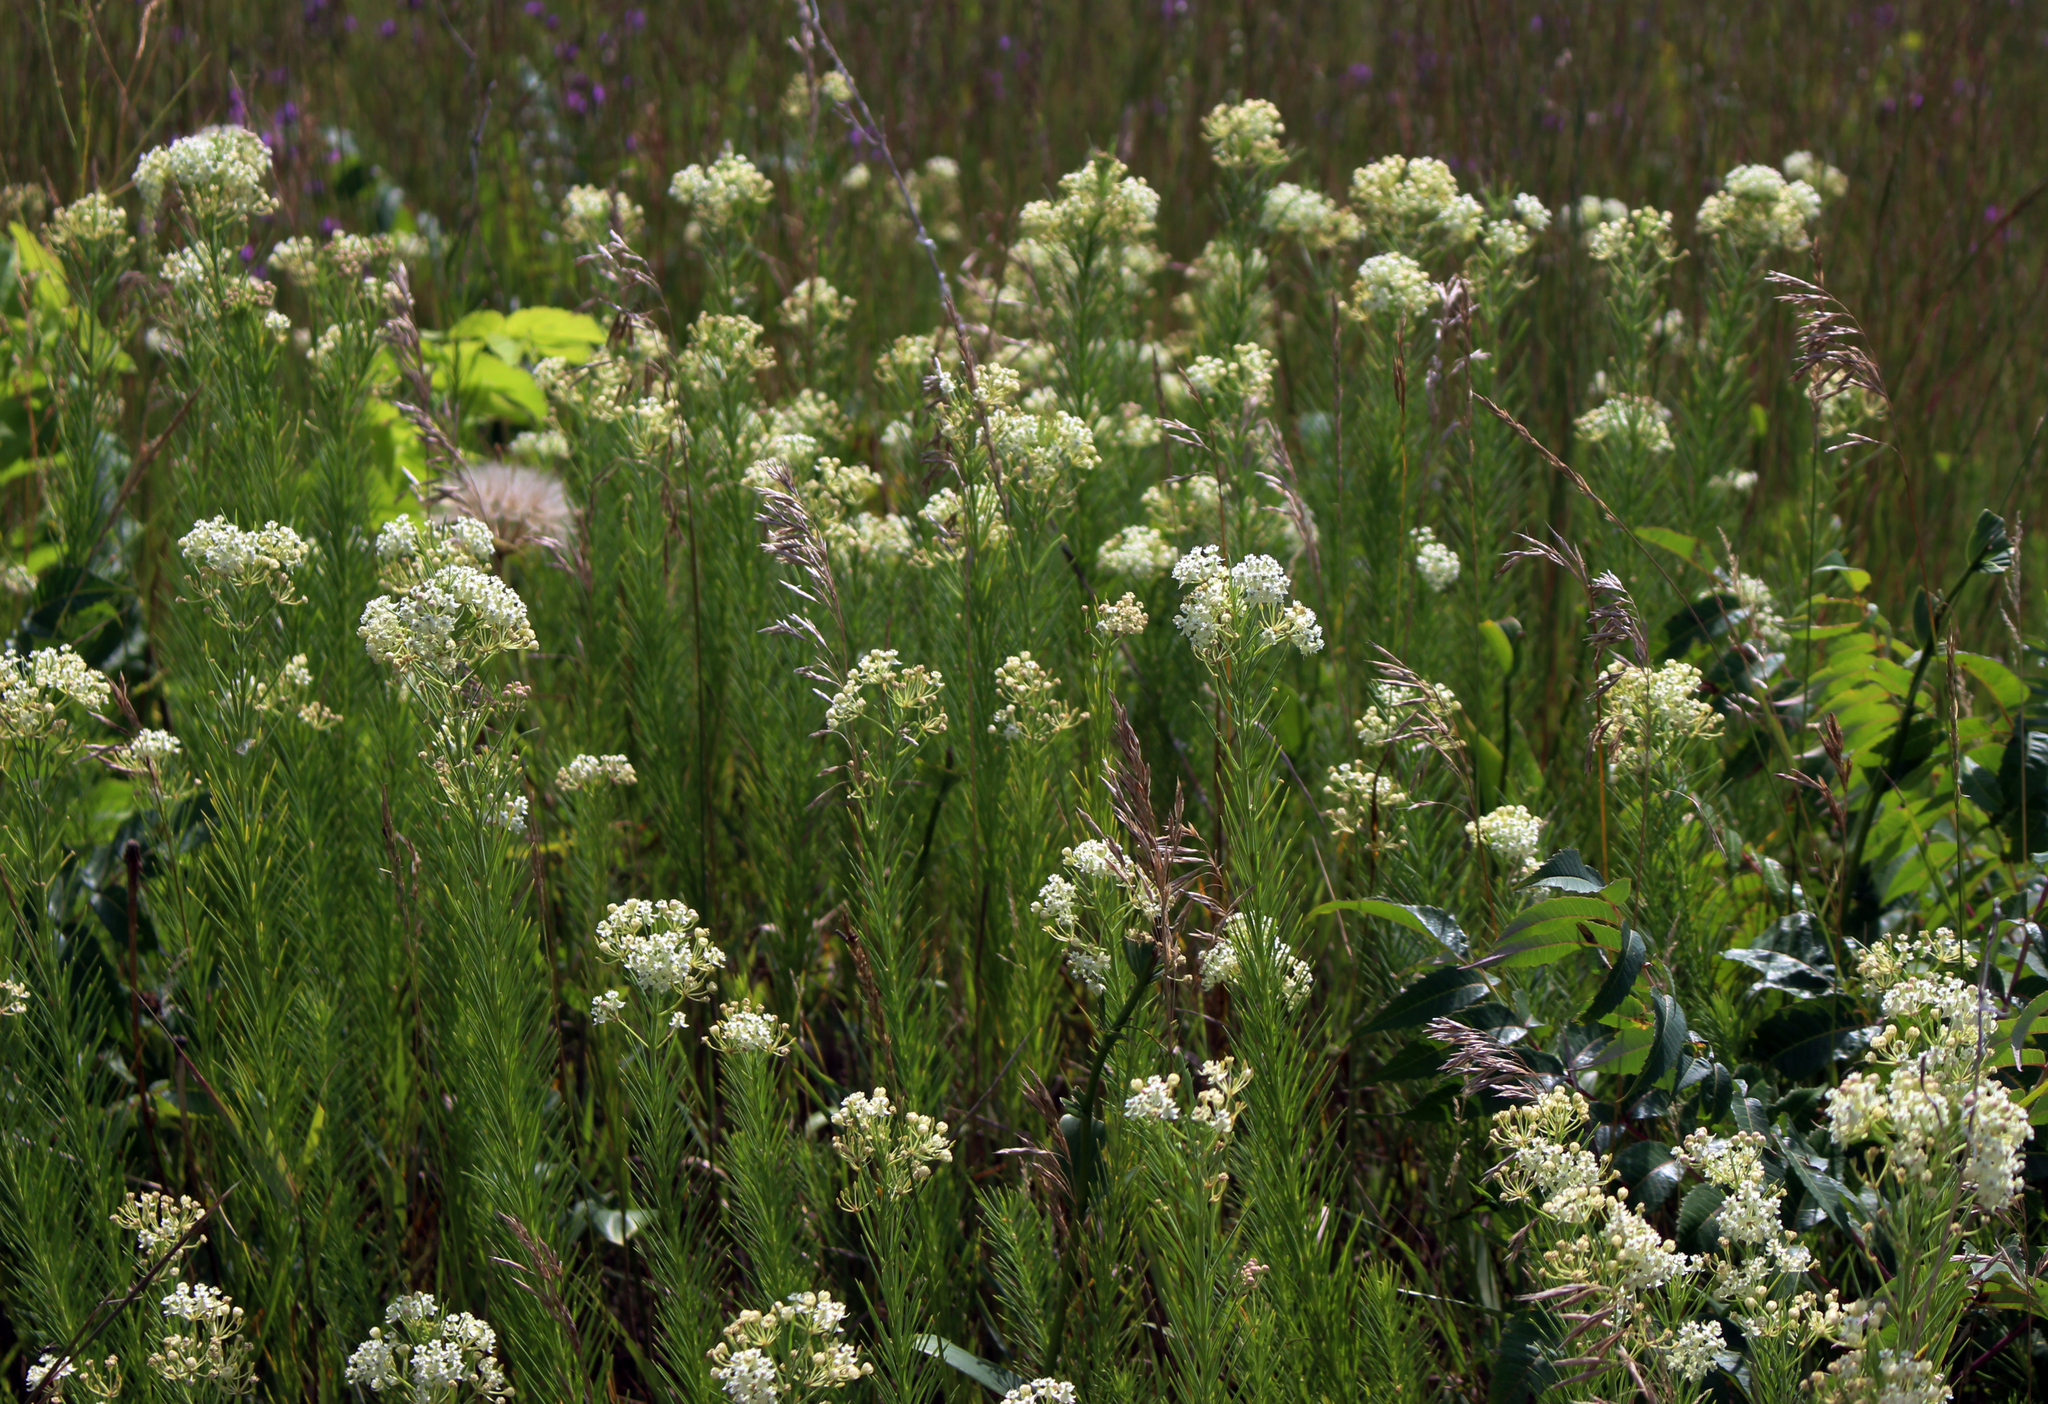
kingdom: Plantae
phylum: Tracheophyta
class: Magnoliopsida
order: Gentianales
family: Apocynaceae
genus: Asclepias
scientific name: Asclepias verticillata
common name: Eastern whorled milkweed
